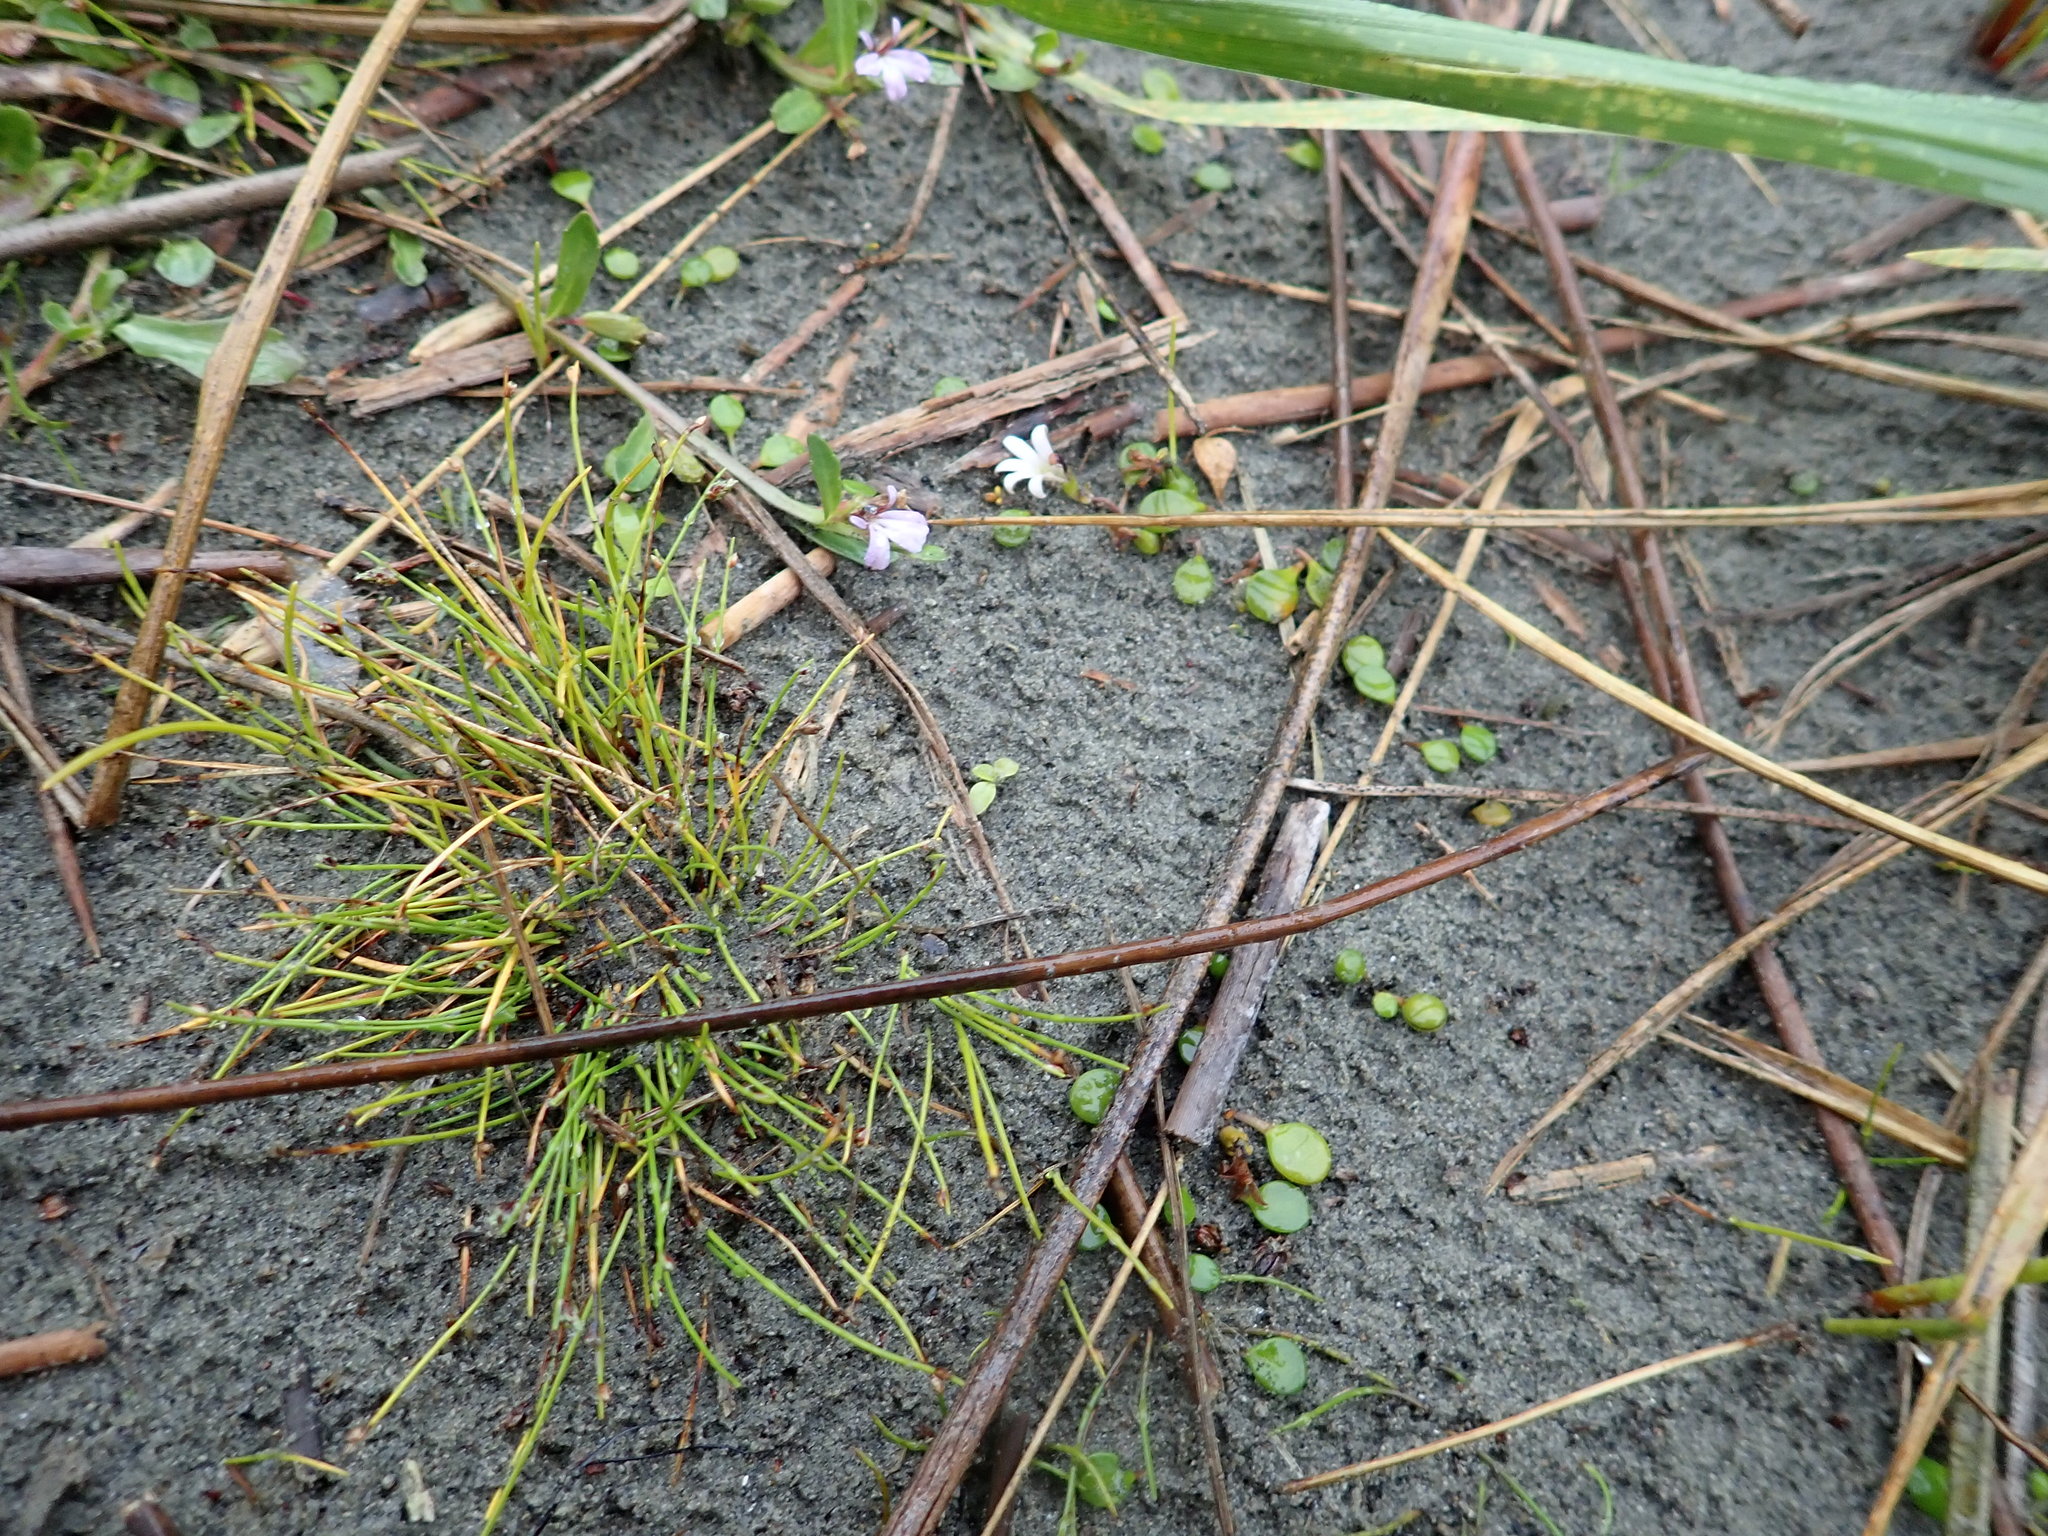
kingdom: Plantae
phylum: Tracheophyta
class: Magnoliopsida
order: Asterales
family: Goodeniaceae
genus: Goodenia
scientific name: Goodenia heenanii
